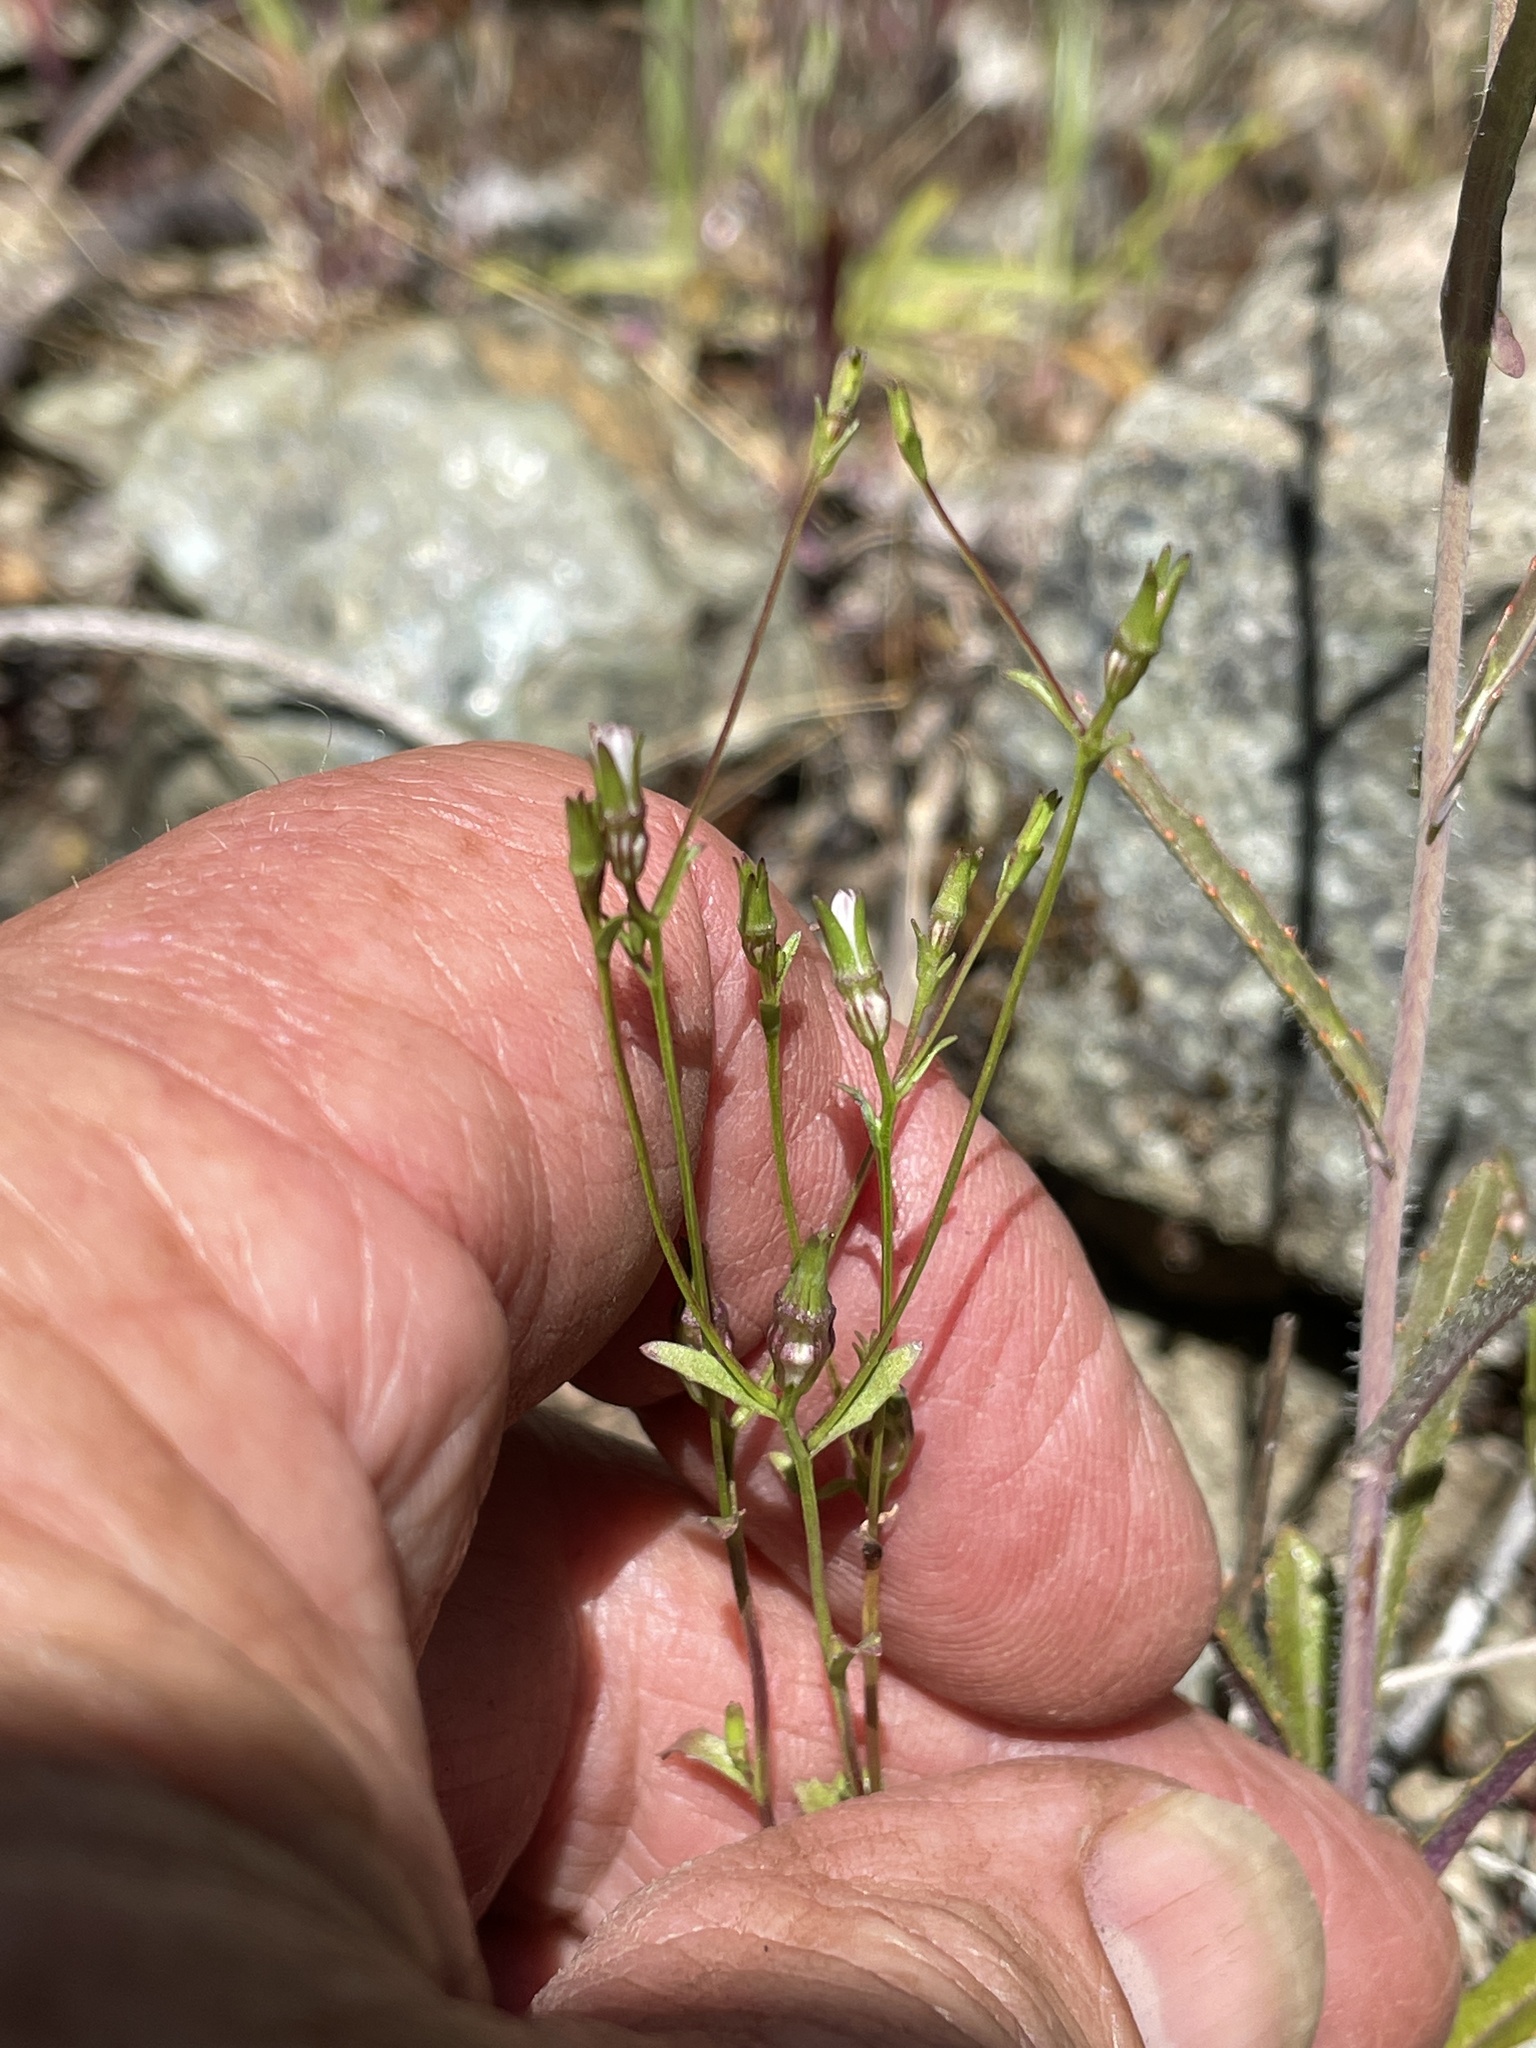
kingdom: Plantae
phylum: Tracheophyta
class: Magnoliopsida
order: Asterales
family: Campanulaceae
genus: Ravenella
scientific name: Ravenella griffinii
